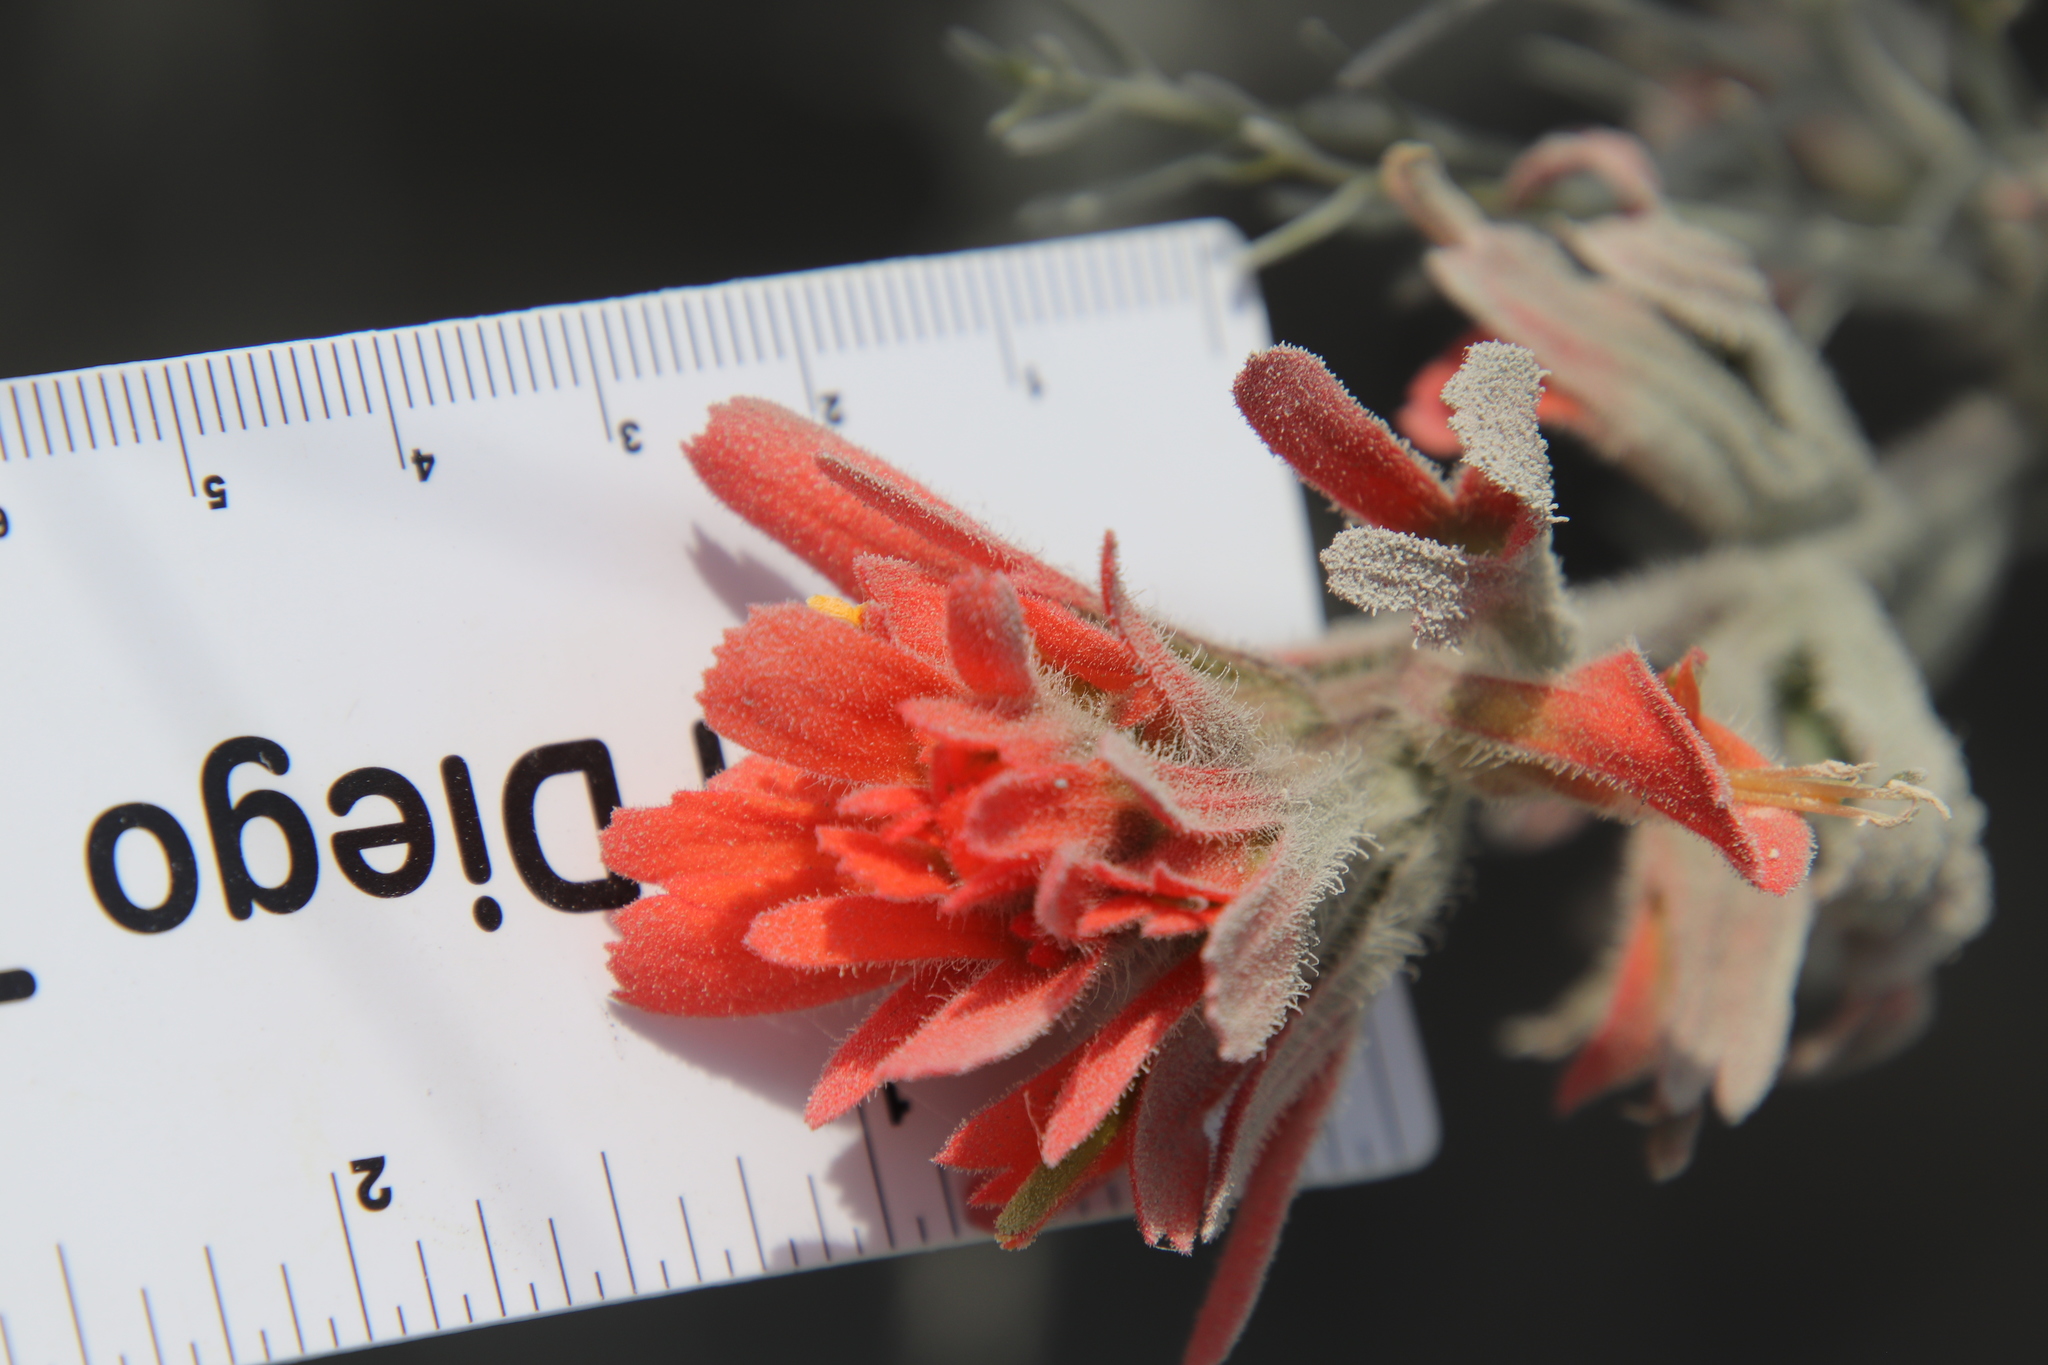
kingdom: Plantae
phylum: Tracheophyta
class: Magnoliopsida
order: Lamiales
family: Orobanchaceae
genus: Castilleja
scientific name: Castilleja foliolosa
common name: Woolly indian paintbrush
